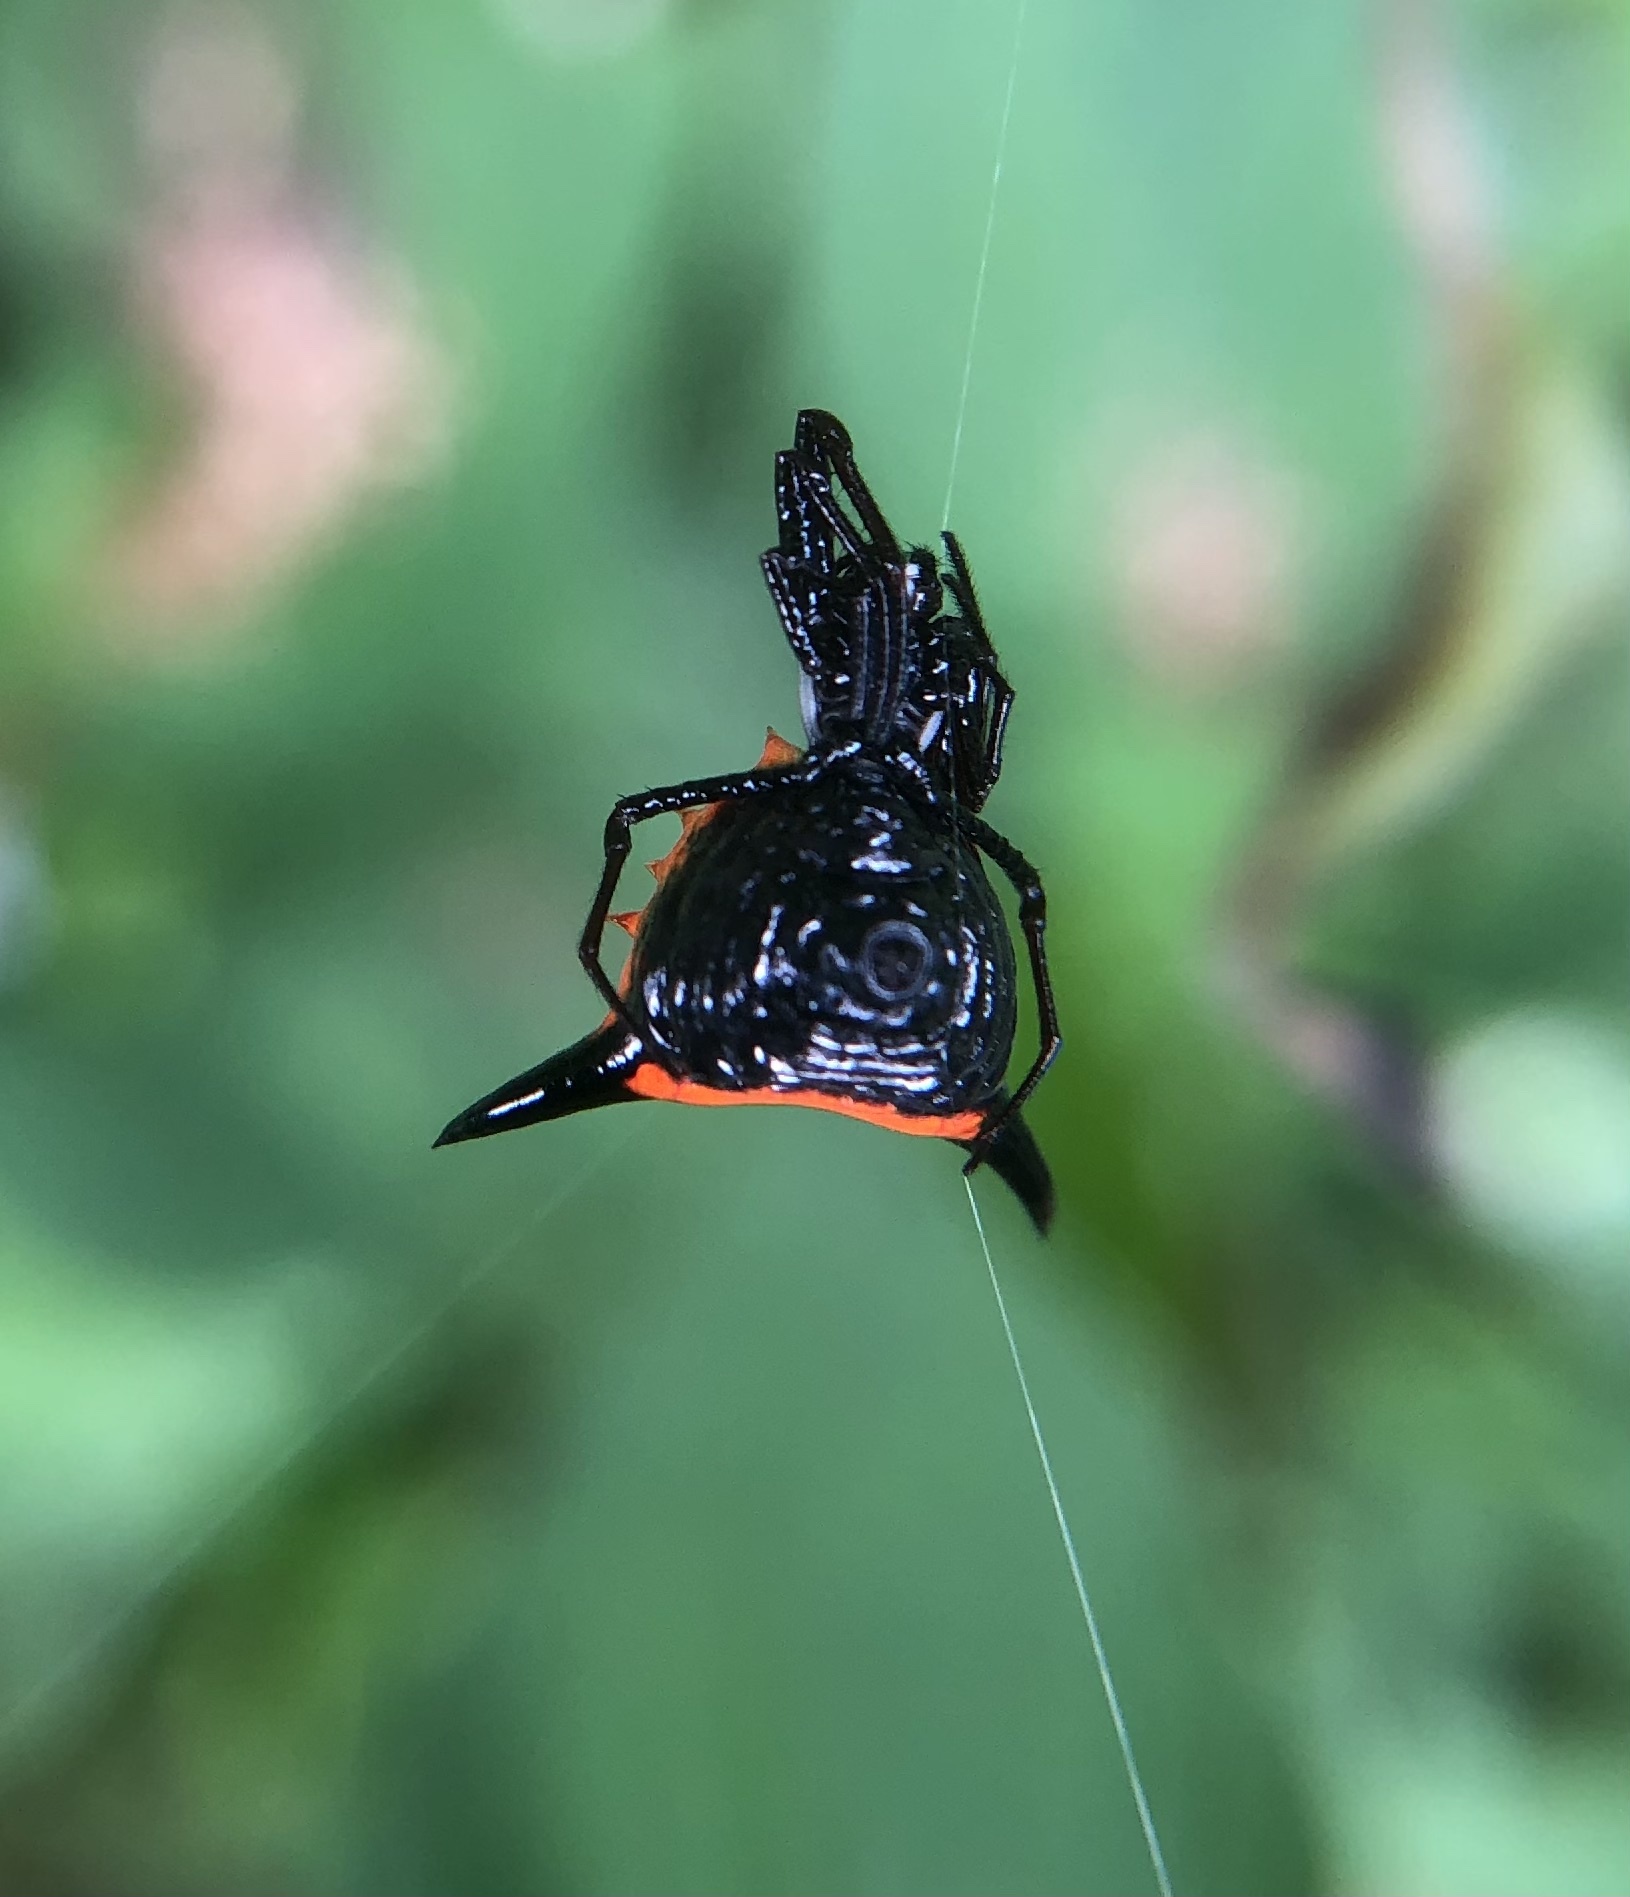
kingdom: Animalia
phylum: Arthropoda
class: Arachnida
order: Araneae
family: Araneidae
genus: Micrathena
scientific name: Micrathena pungens
